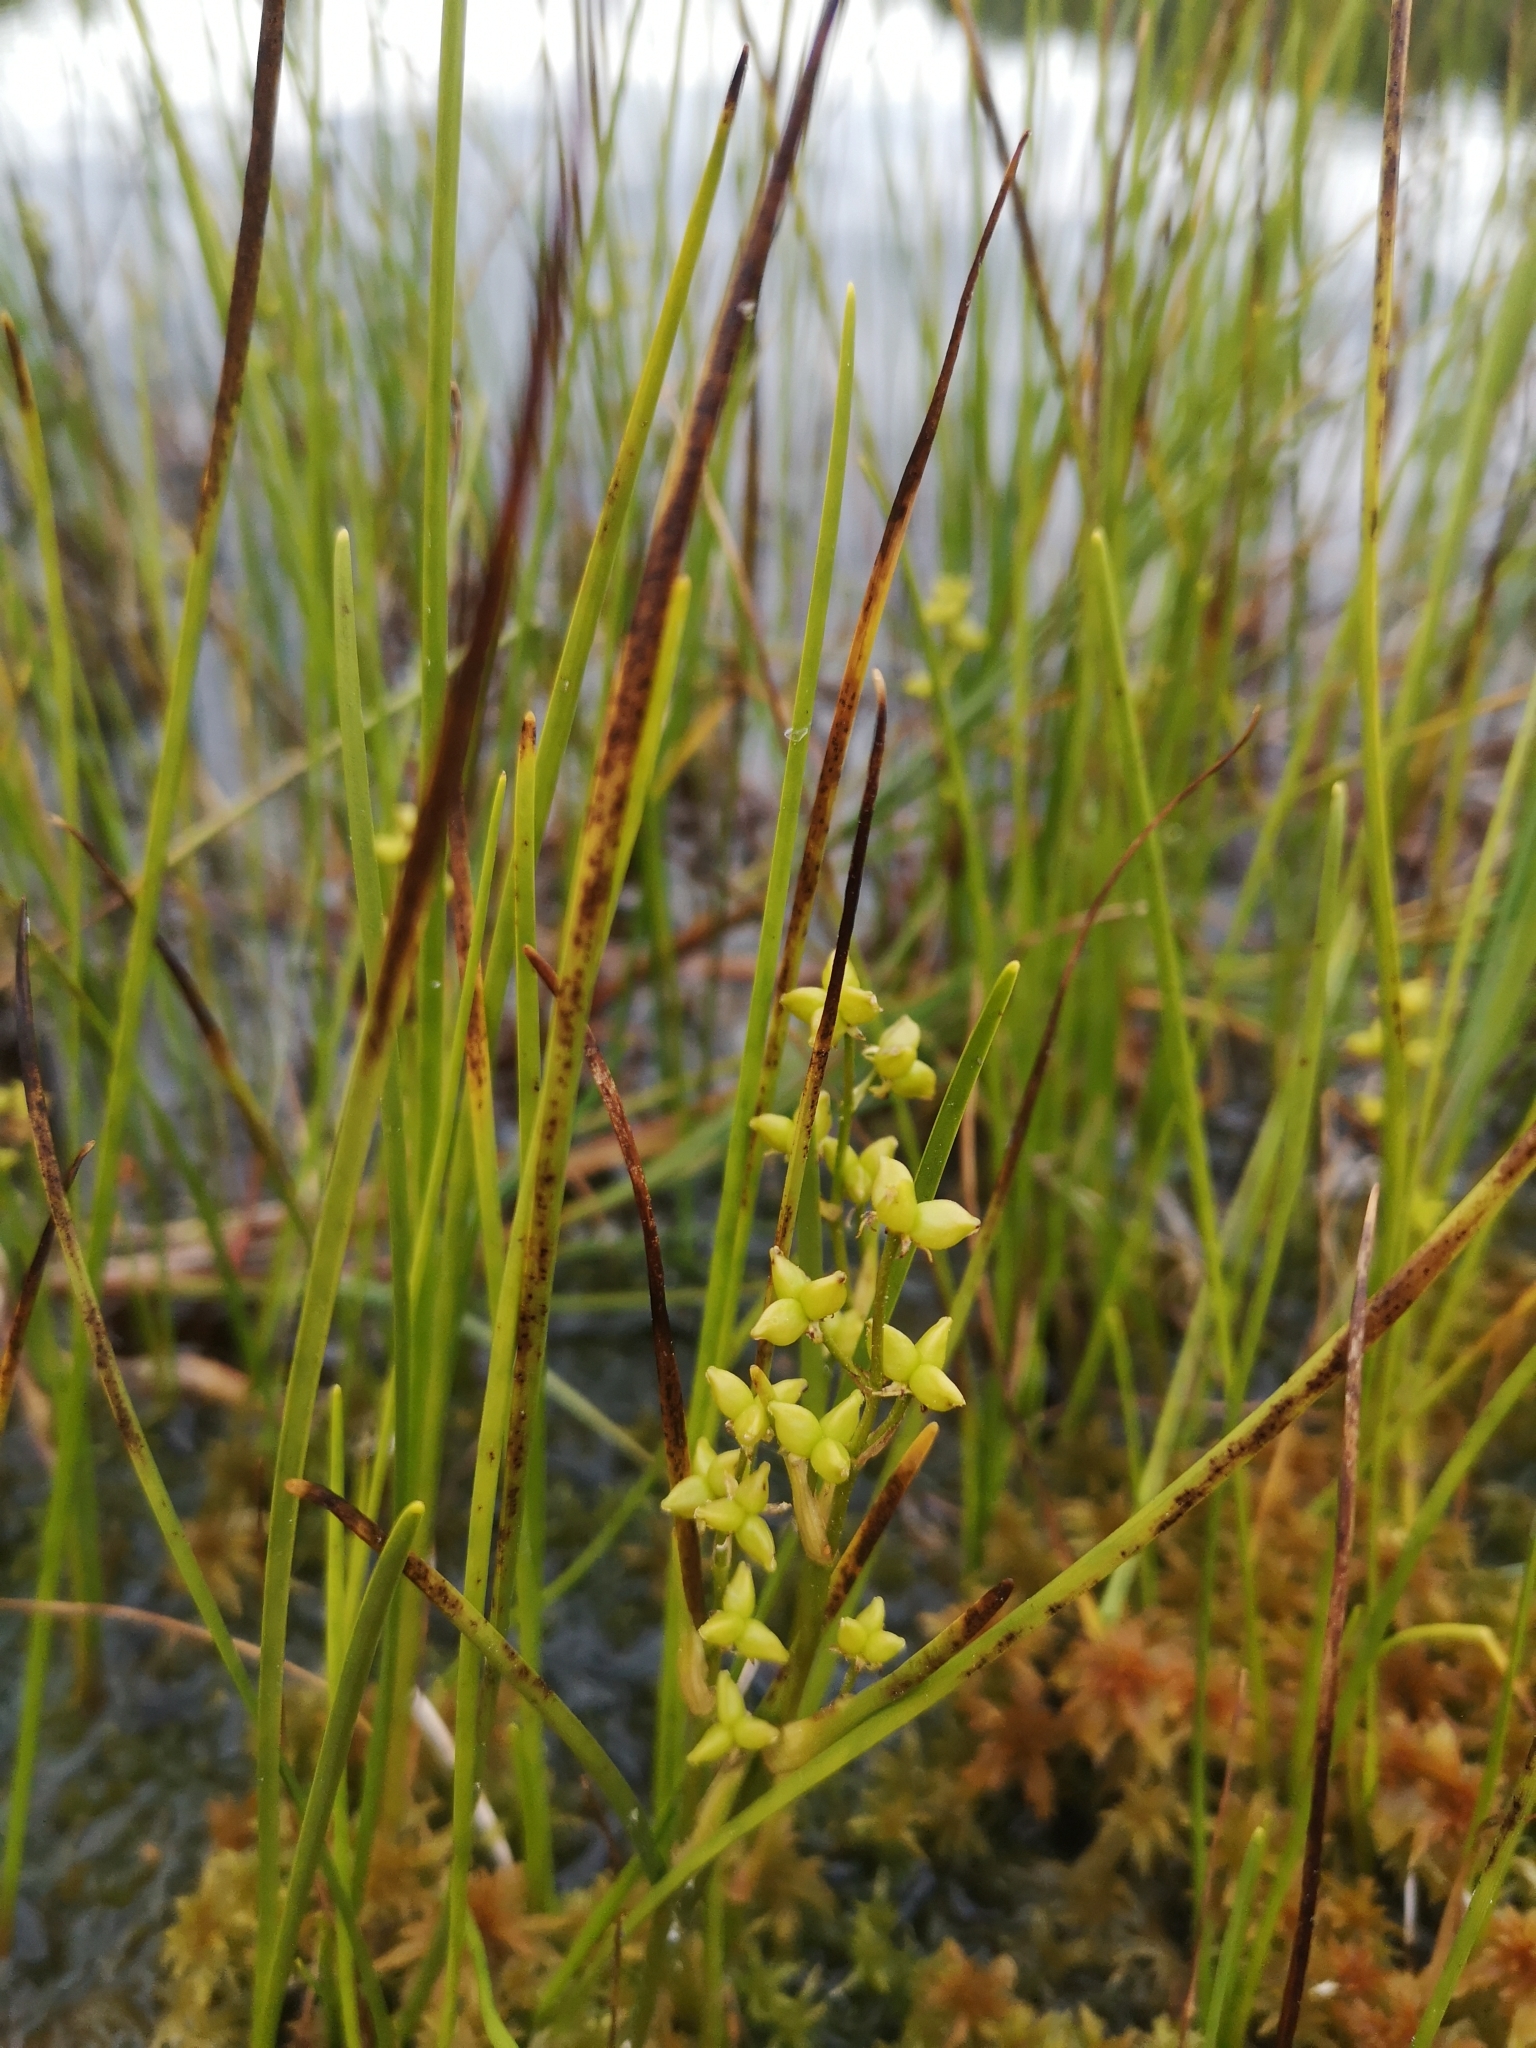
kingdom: Plantae
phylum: Tracheophyta
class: Liliopsida
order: Alismatales
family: Scheuchzeriaceae
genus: Scheuchzeria
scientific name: Scheuchzeria palustris
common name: Rannoch-rush
